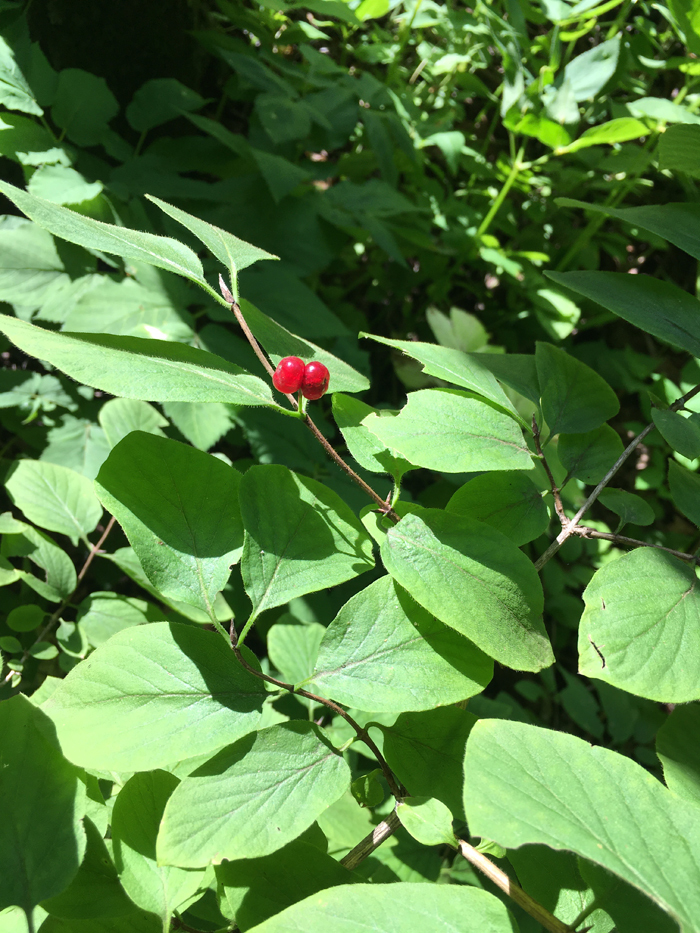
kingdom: Plantae
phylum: Tracheophyta
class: Magnoliopsida
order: Dipsacales
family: Caprifoliaceae
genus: Lonicera
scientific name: Lonicera xylosteum
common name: Fly honeysuckle
